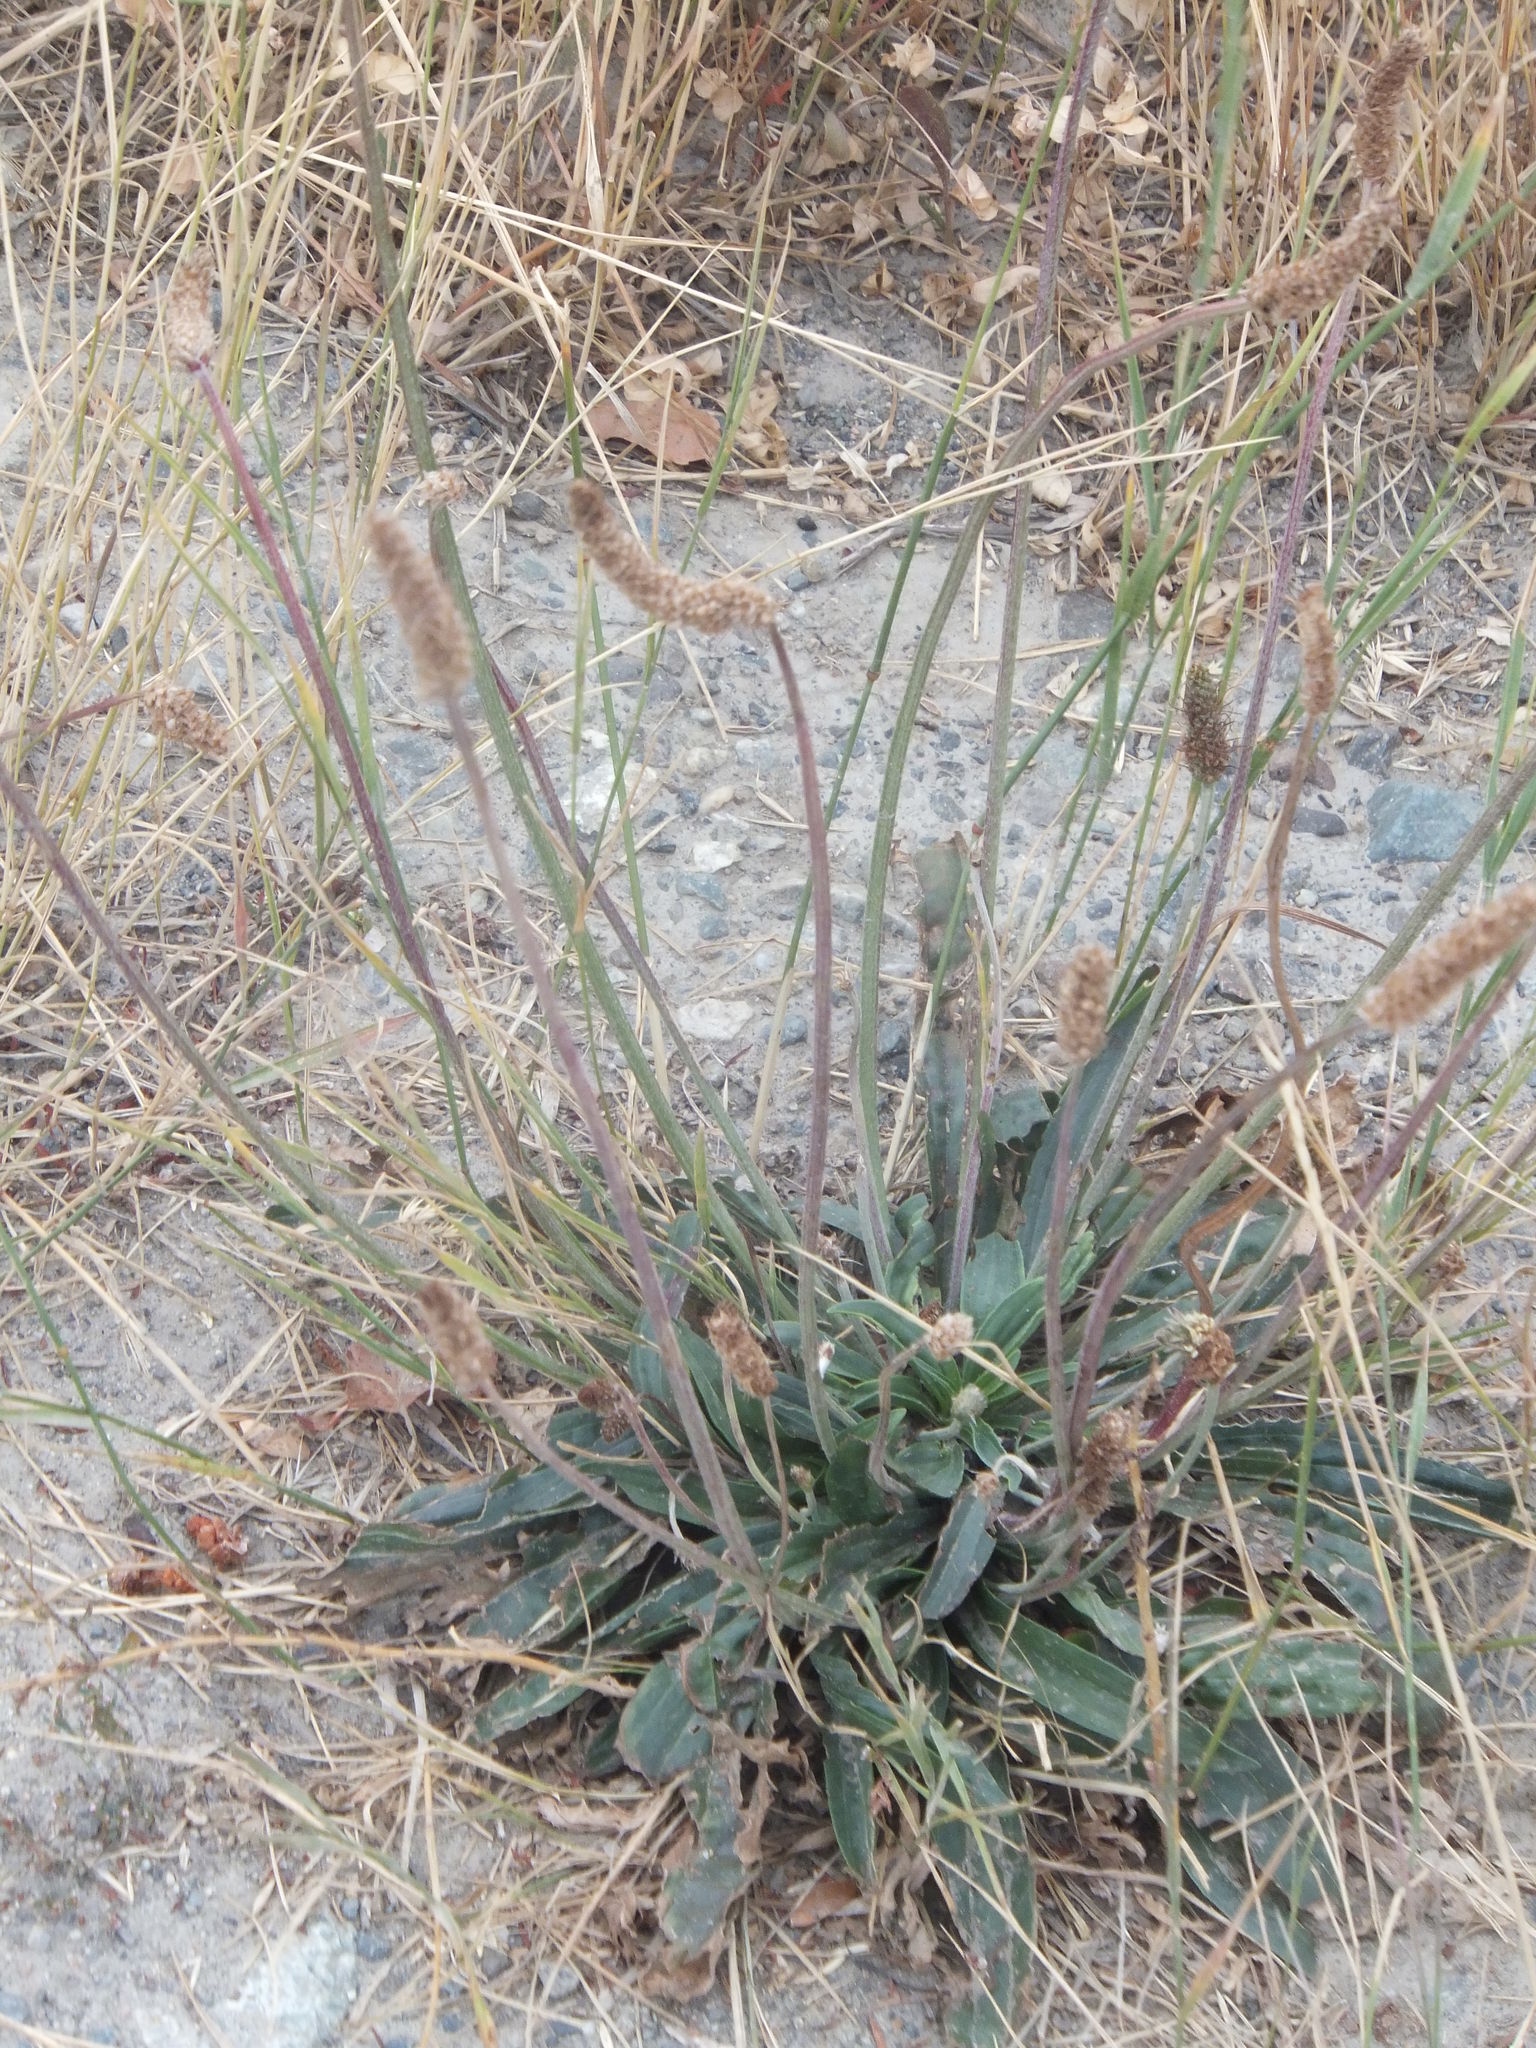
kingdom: Plantae
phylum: Tracheophyta
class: Magnoliopsida
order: Lamiales
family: Plantaginaceae
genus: Plantago
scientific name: Plantago lanceolata
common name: Ribwort plantain
